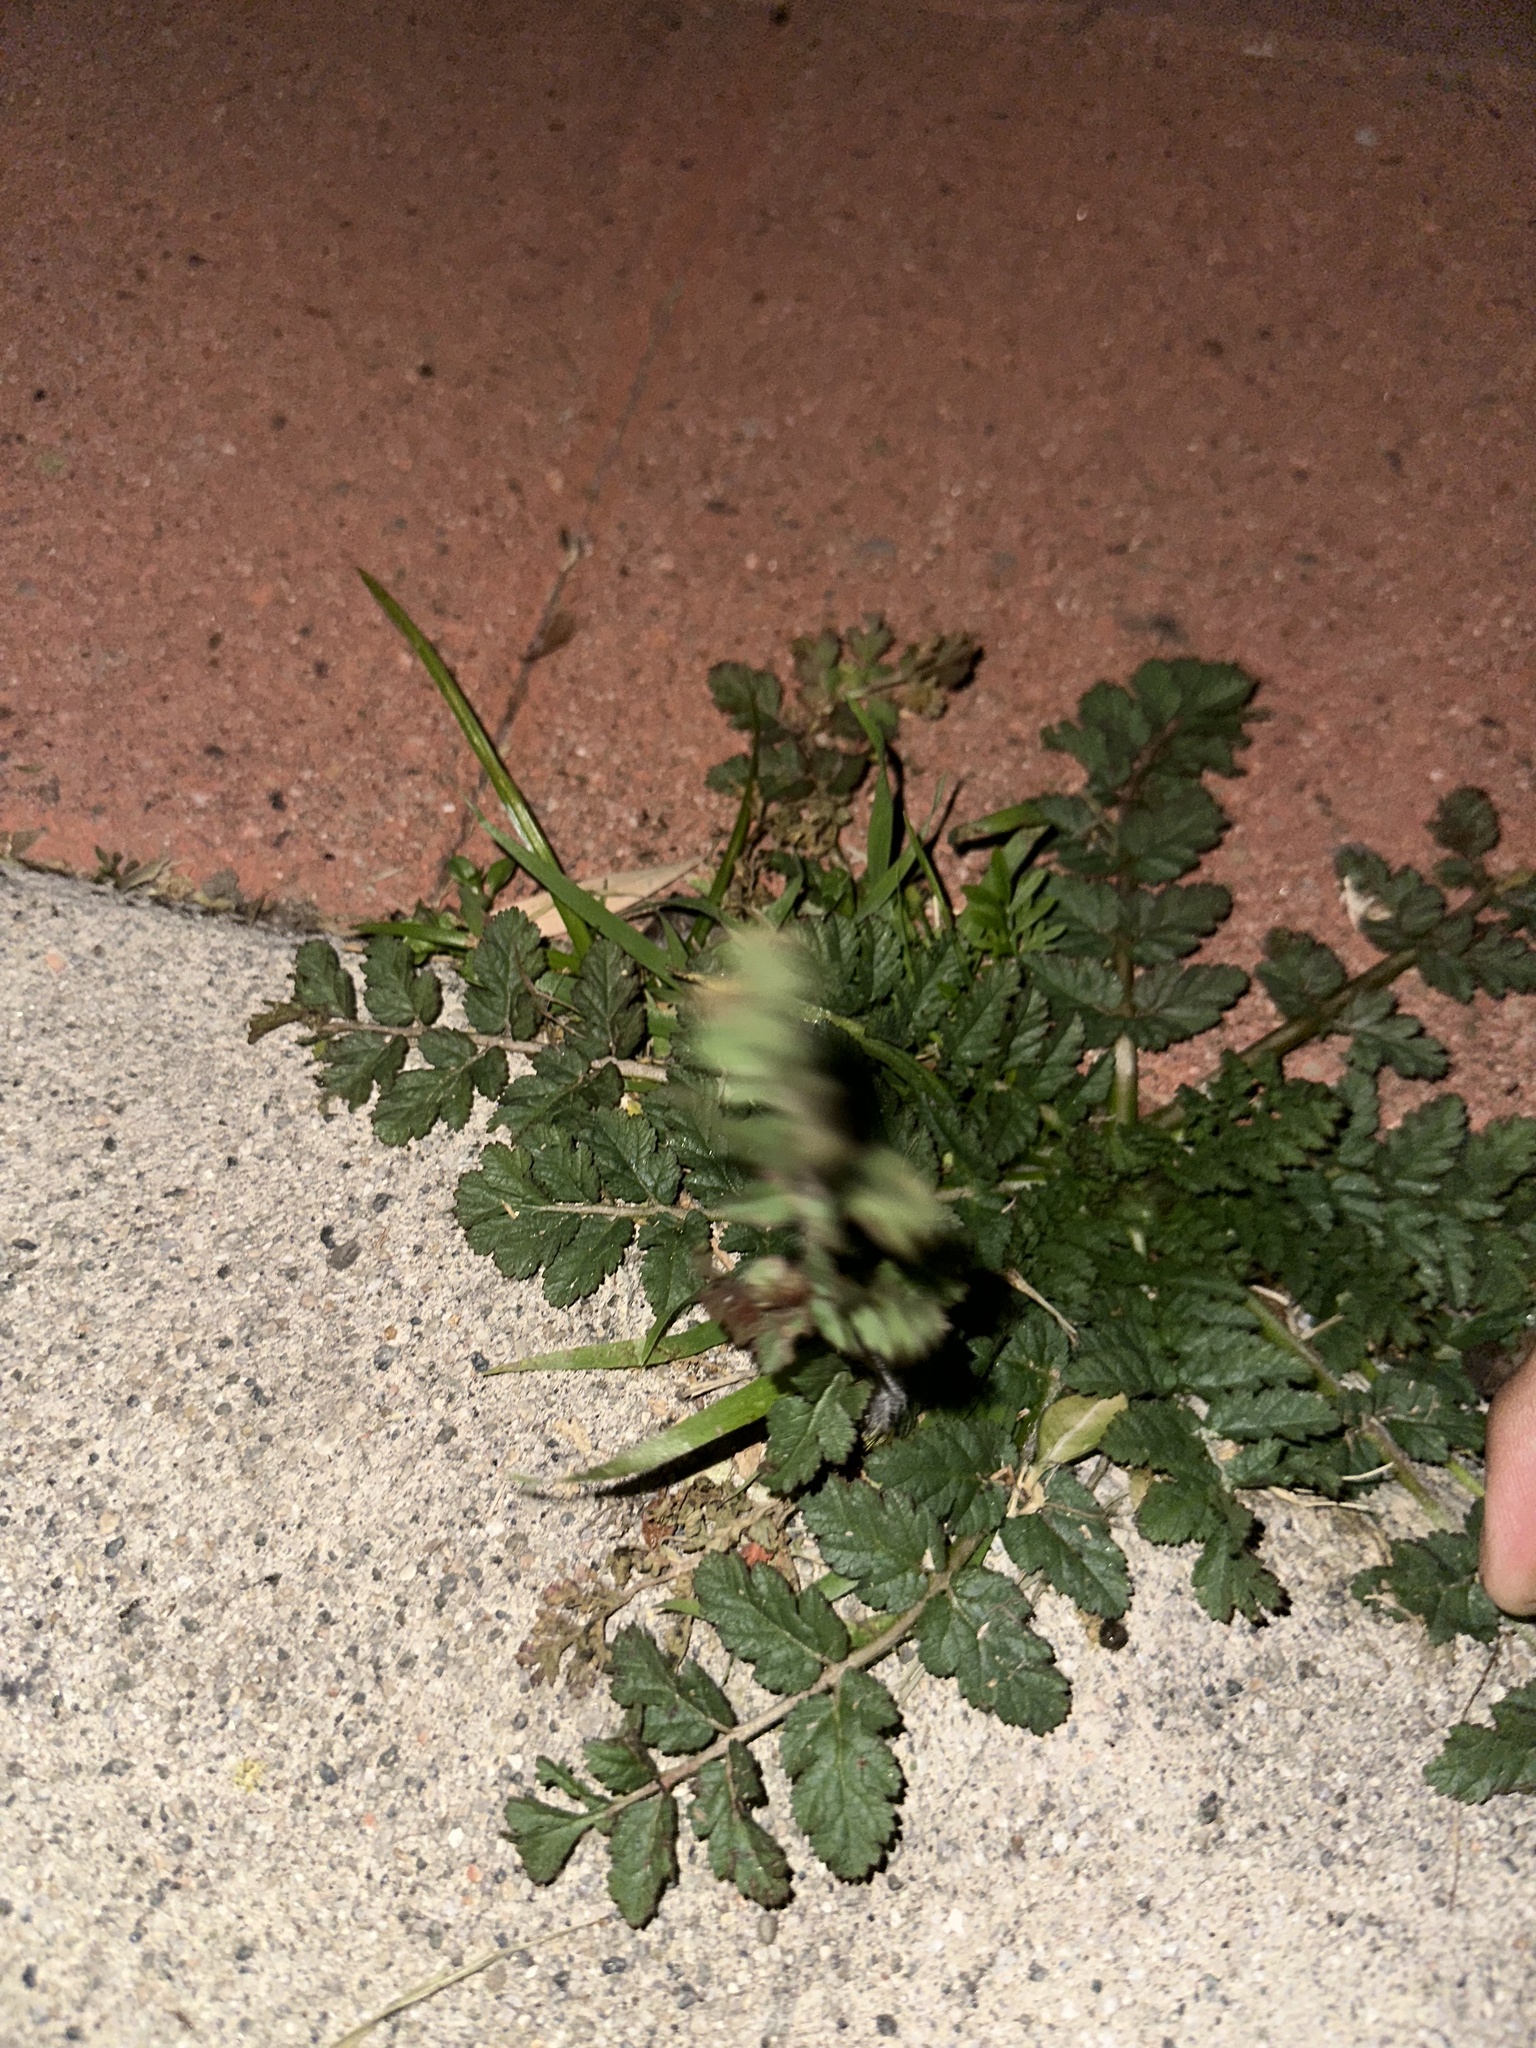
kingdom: Plantae
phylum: Tracheophyta
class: Magnoliopsida
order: Geraniales
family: Geraniaceae
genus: Erodium
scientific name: Erodium moschatum
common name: Musk stork's-bill
